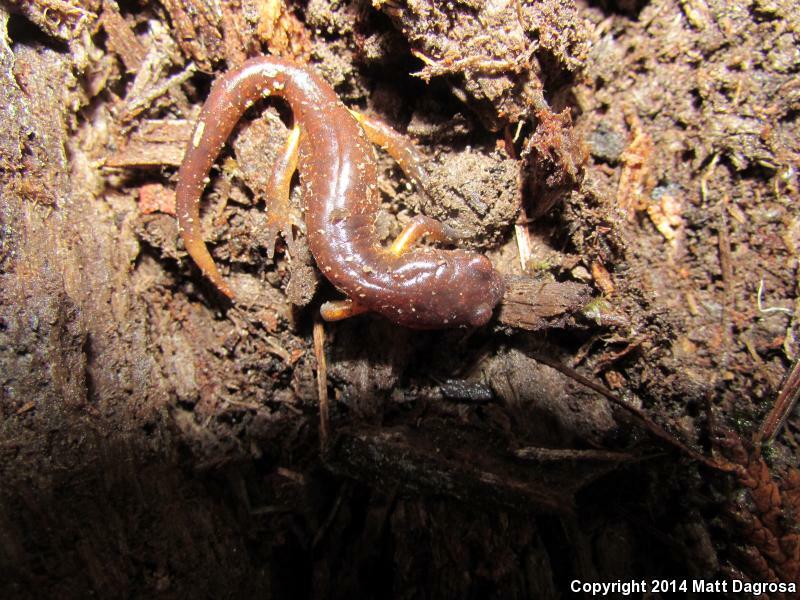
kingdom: Animalia
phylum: Chordata
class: Amphibia
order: Caudata
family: Plethodontidae
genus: Ensatina
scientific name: Ensatina eschscholtzii
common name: Ensatina
